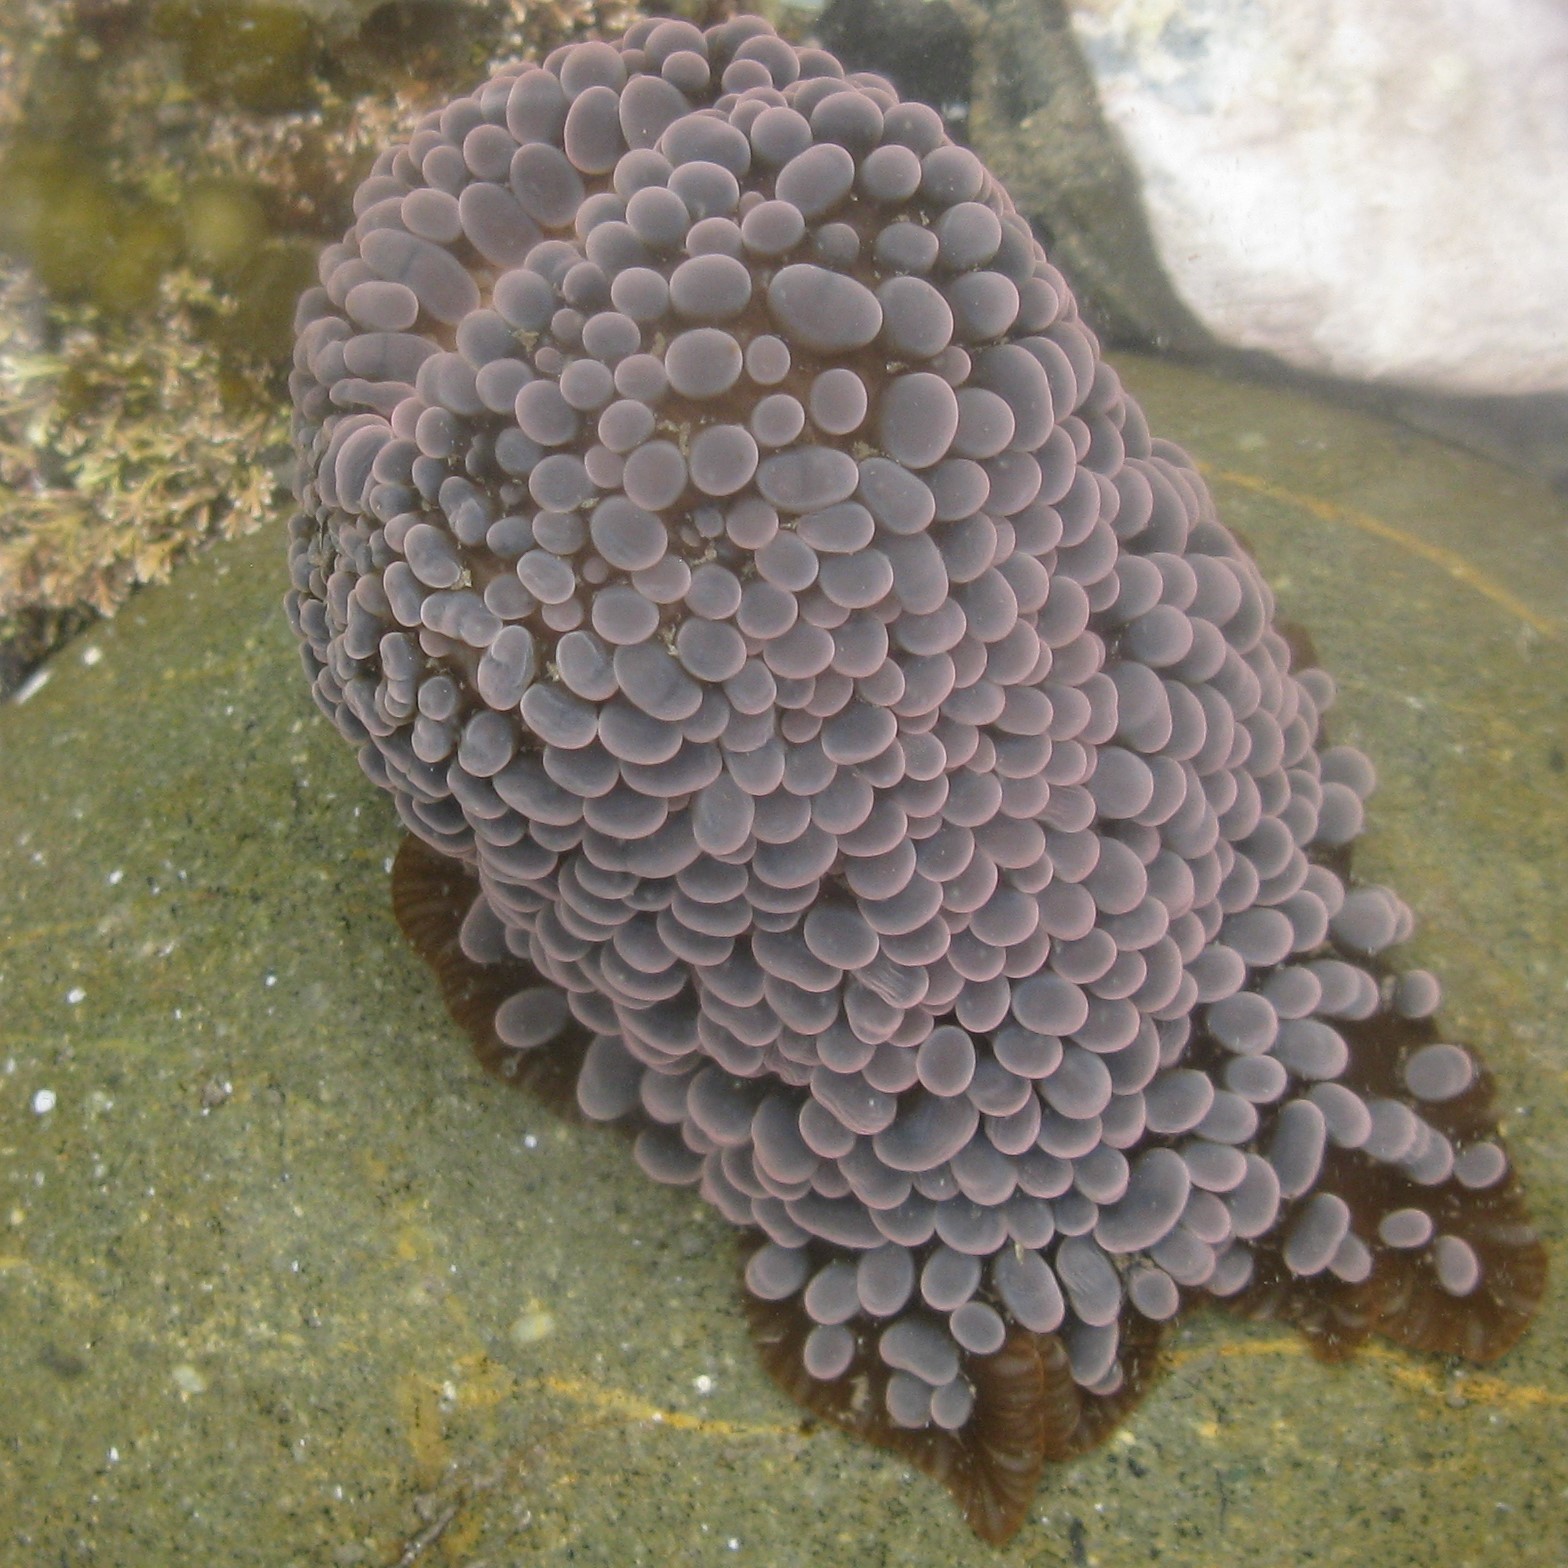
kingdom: Animalia
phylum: Cnidaria
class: Anthozoa
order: Actiniaria
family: Actiniidae
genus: Phlyctenactis
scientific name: Phlyctenactis tuberculosa
